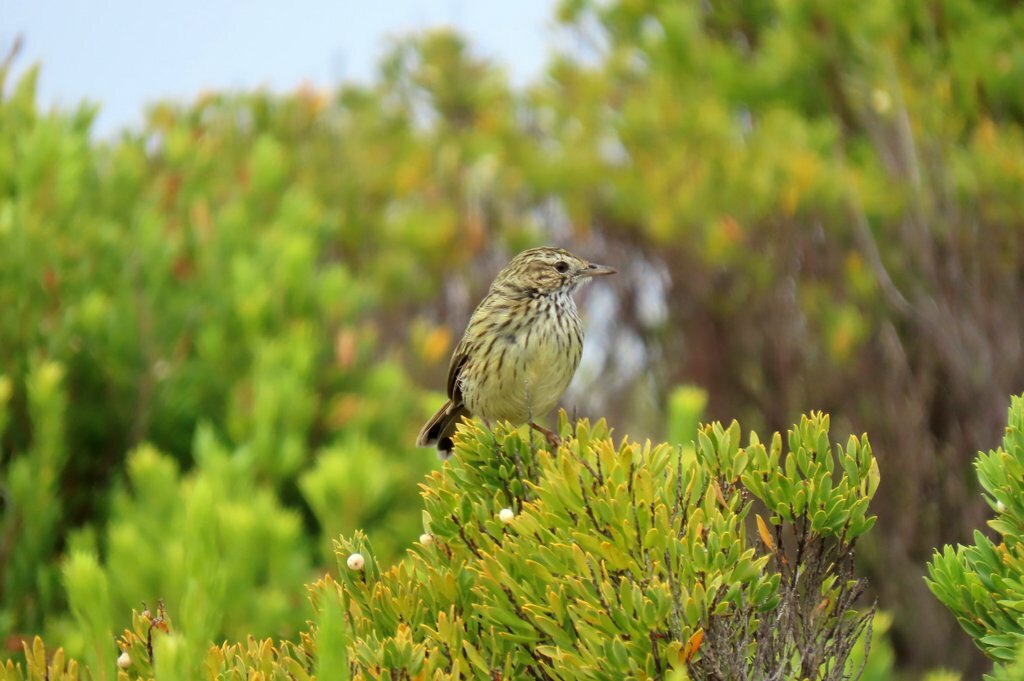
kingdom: Animalia
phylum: Chordata
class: Aves
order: Passeriformes
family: Acanthizidae
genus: Calamanthus
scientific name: Calamanthus fuliginosus
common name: Striated fieldwren
